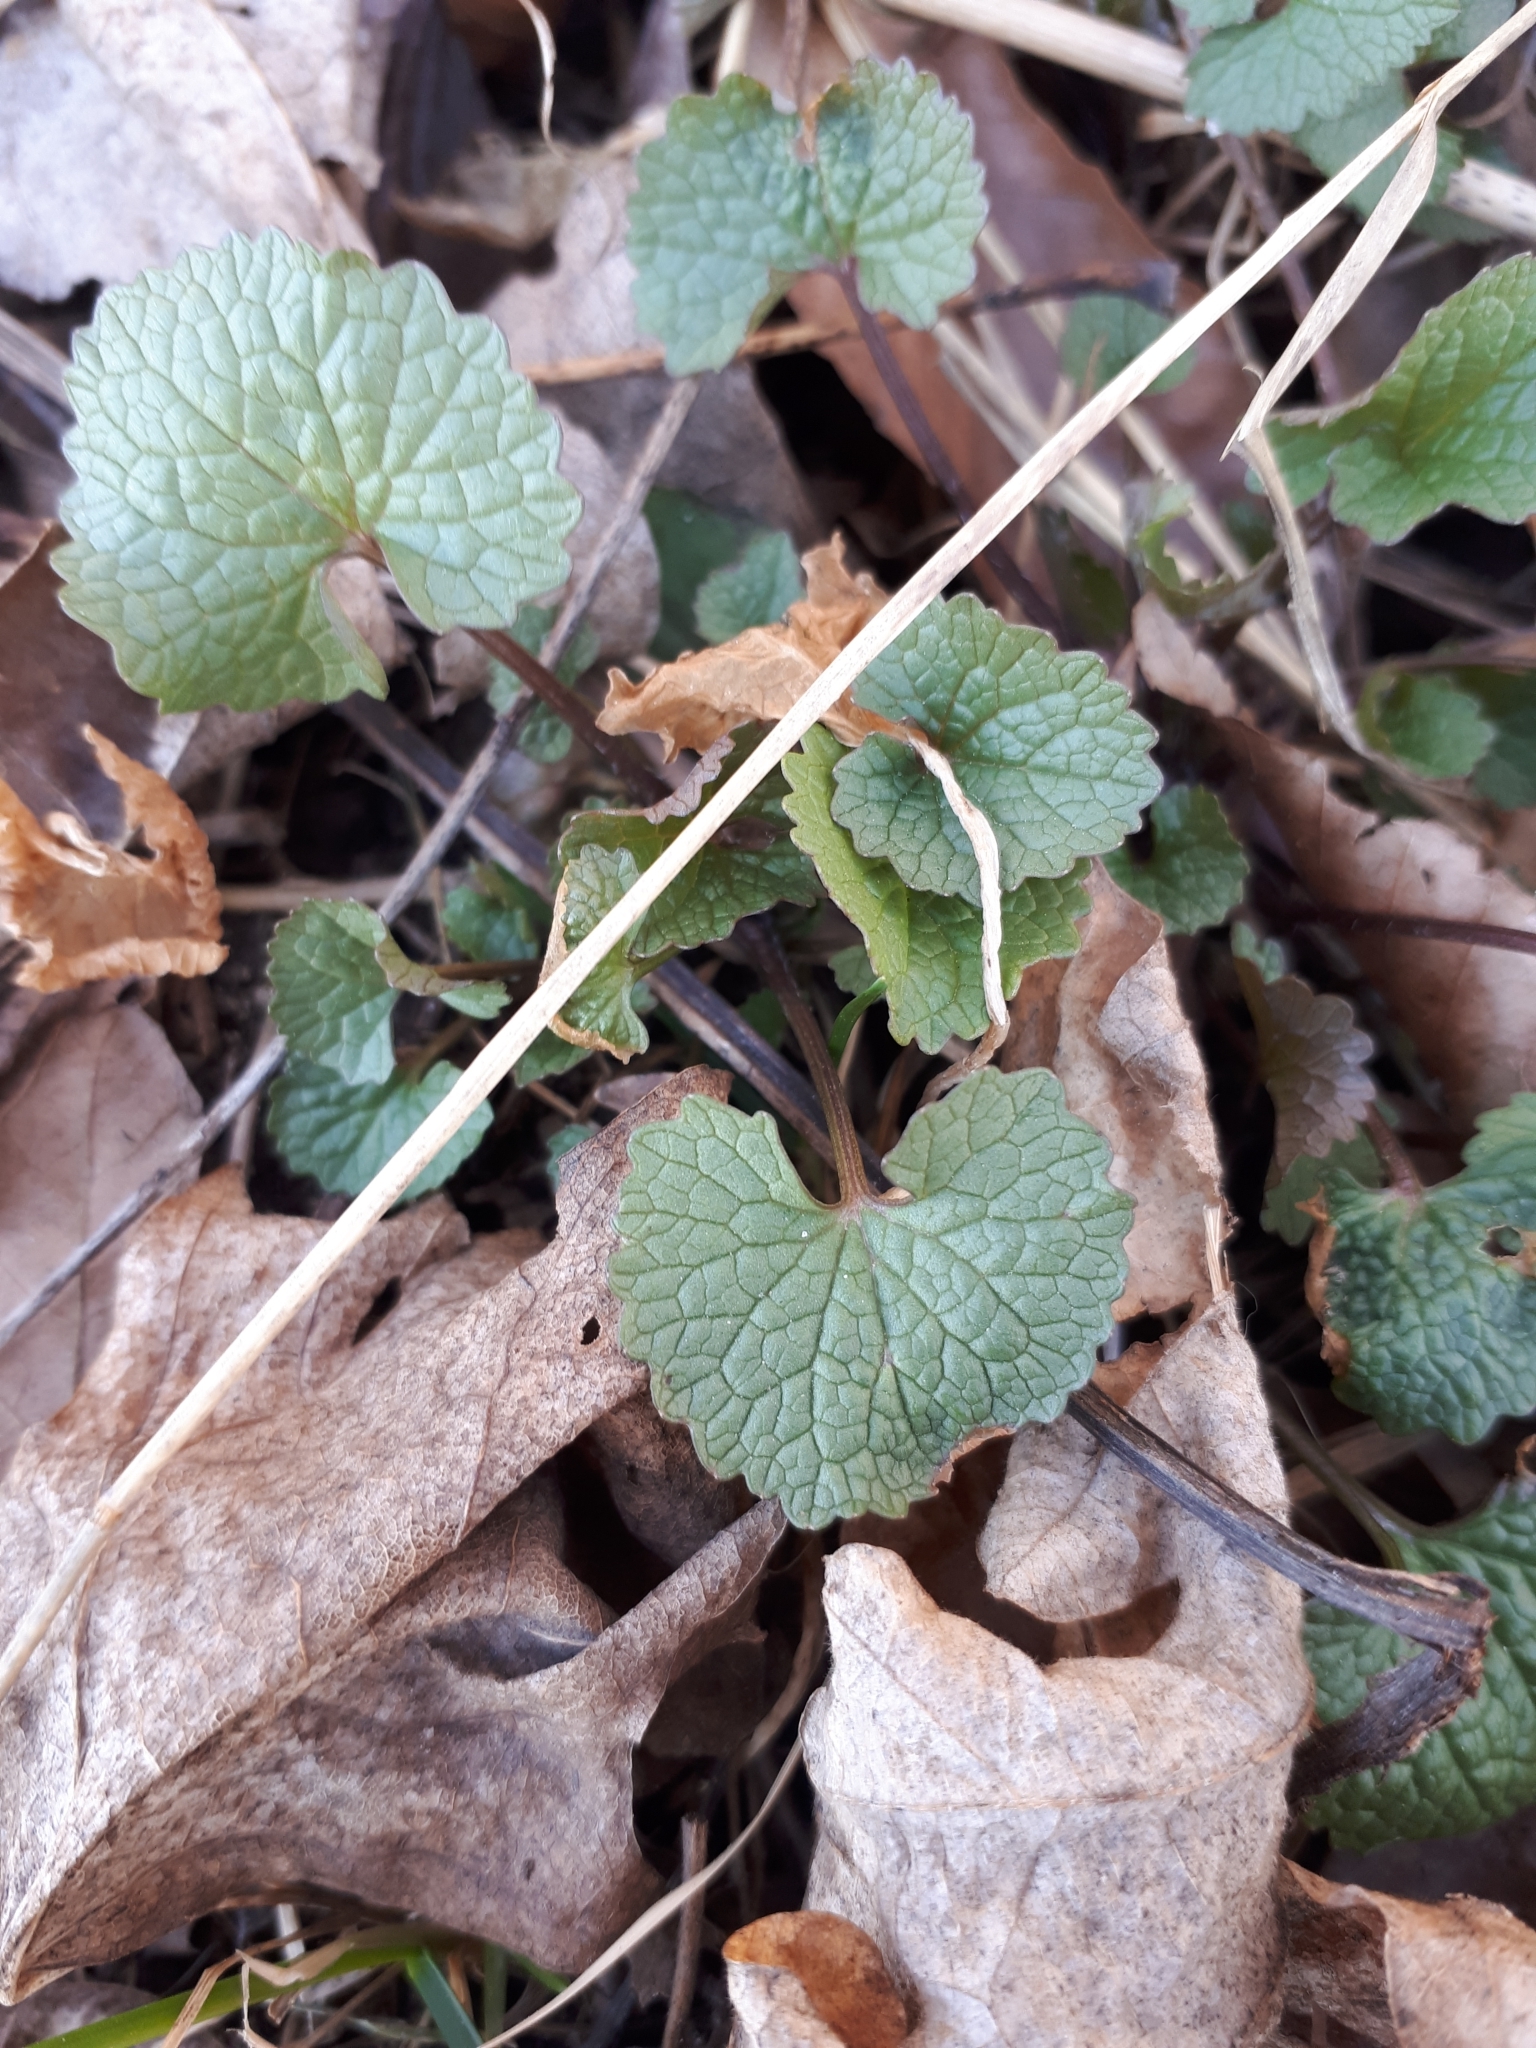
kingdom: Plantae
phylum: Tracheophyta
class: Magnoliopsida
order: Brassicales
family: Brassicaceae
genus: Alliaria
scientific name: Alliaria petiolata
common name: Garlic mustard
